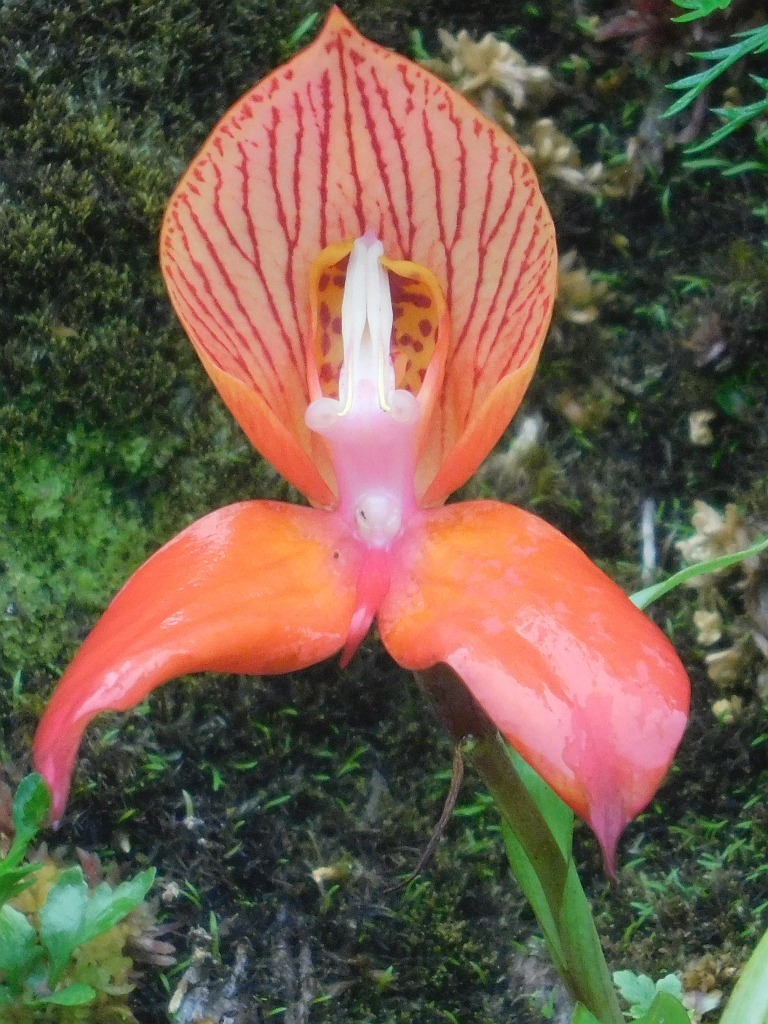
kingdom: Plantae
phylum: Tracheophyta
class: Liliopsida
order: Asparagales
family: Orchidaceae
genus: Disa
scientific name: Disa uniflora
